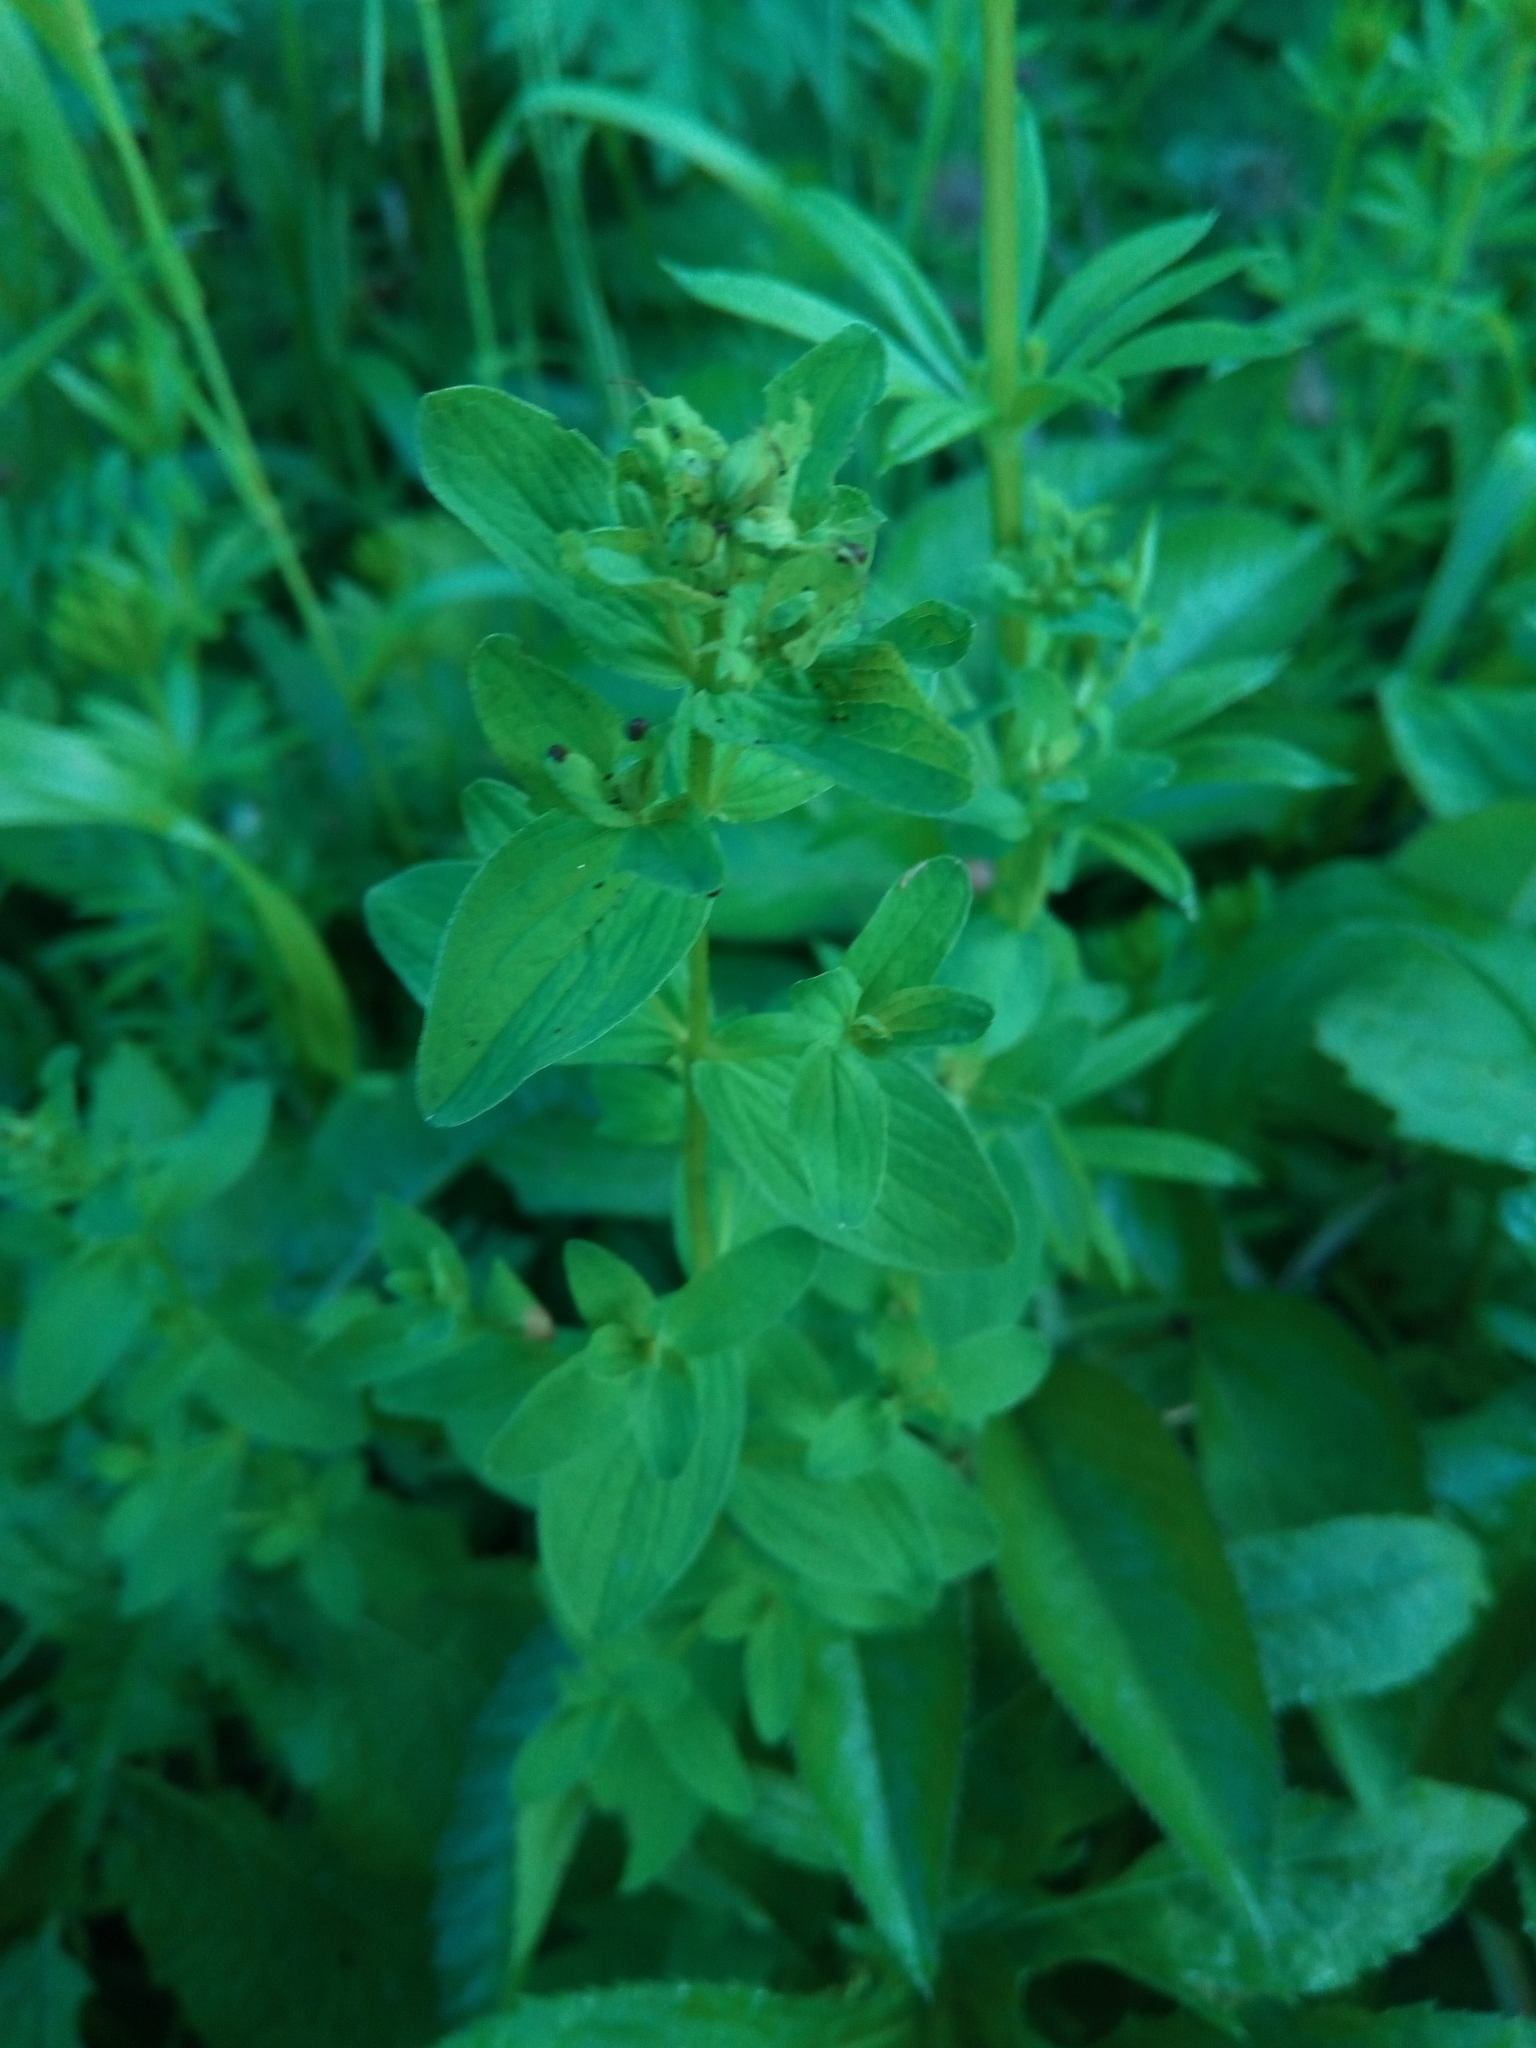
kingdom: Plantae
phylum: Tracheophyta
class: Magnoliopsida
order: Malpighiales
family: Hypericaceae
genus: Hypericum
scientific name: Hypericum maculatum
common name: Imperforate st. john's-wort
